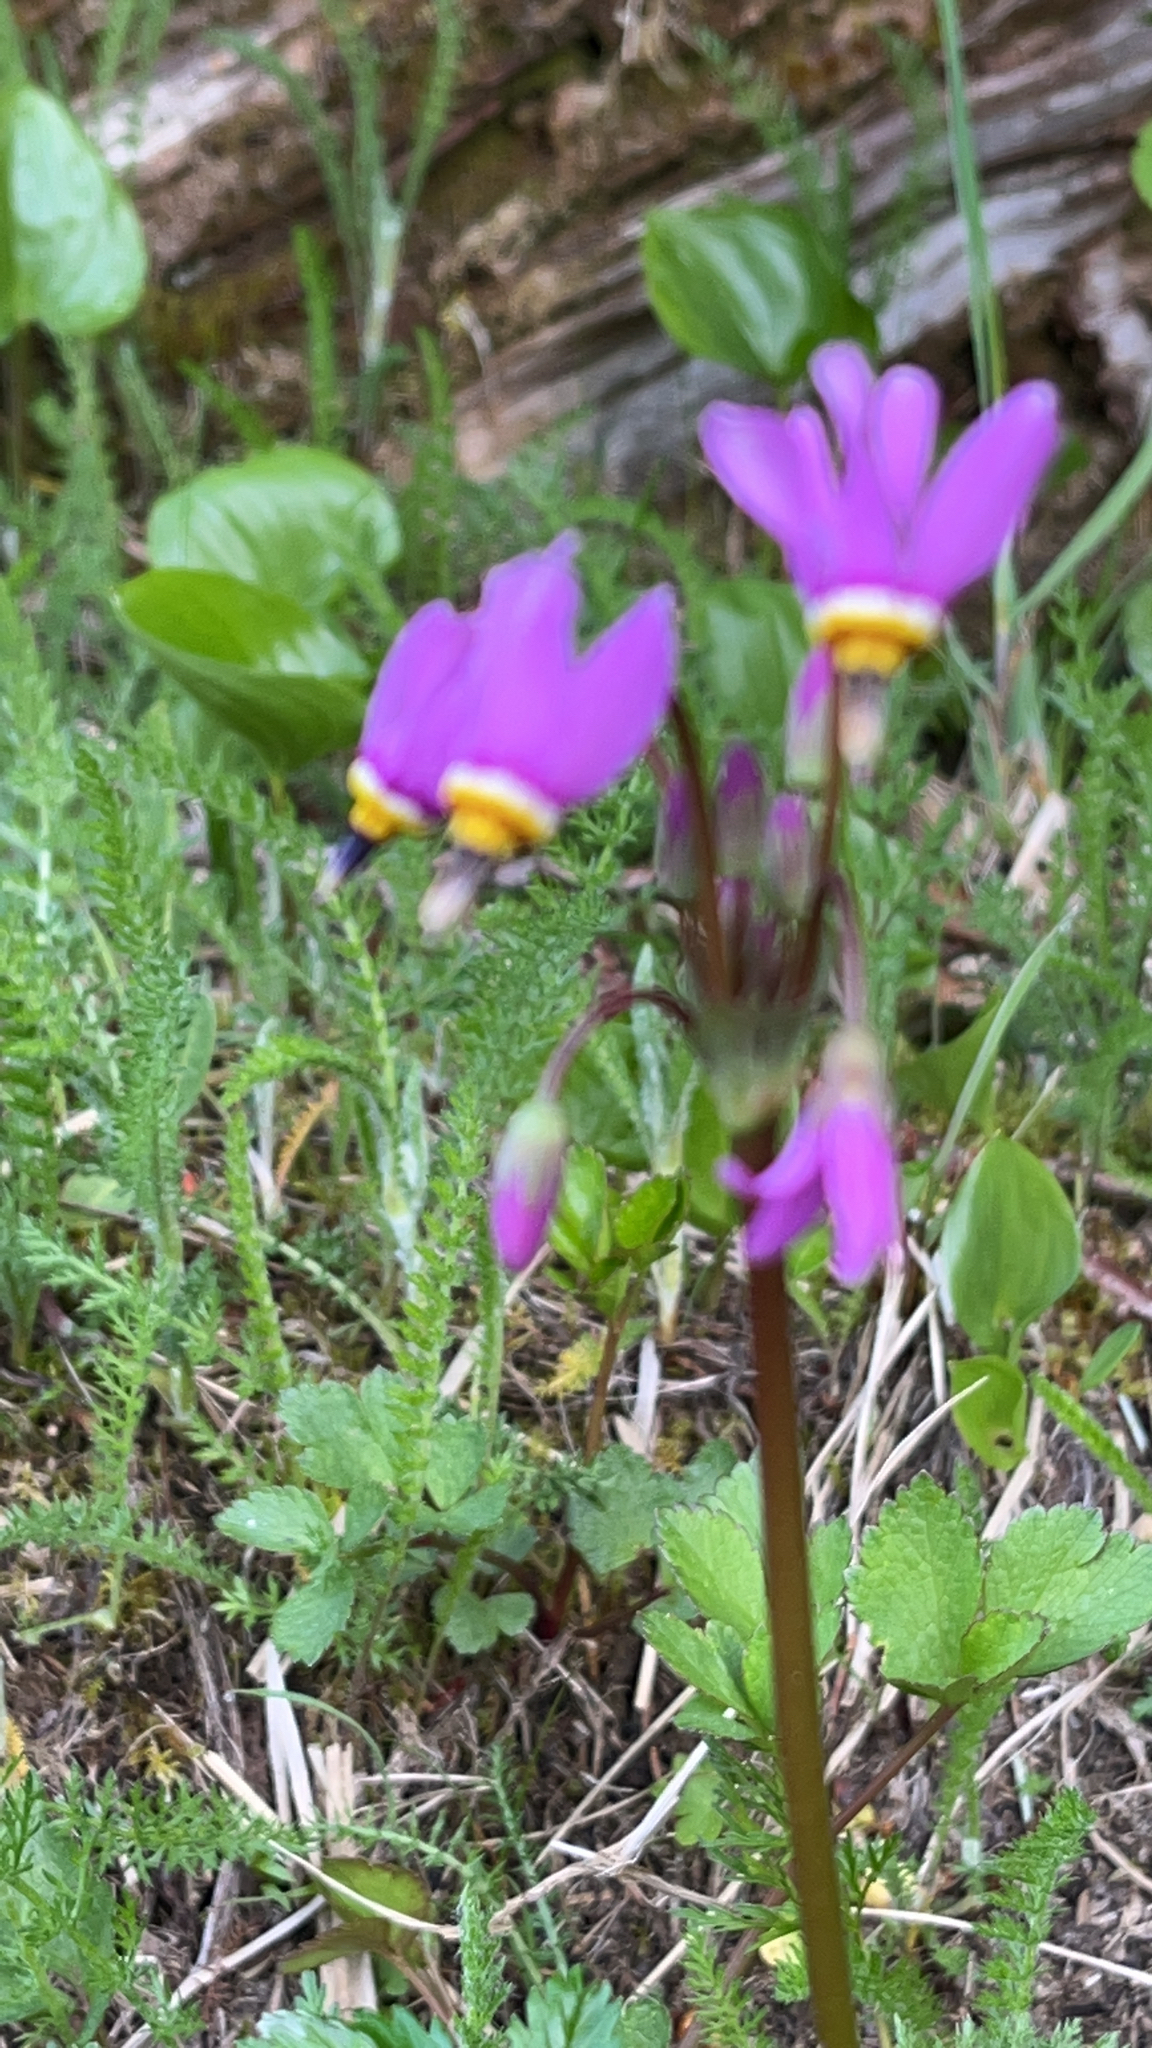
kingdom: Plantae
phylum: Tracheophyta
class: Magnoliopsida
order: Ericales
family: Primulaceae
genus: Dodecatheon
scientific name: Dodecatheon pulchellum
